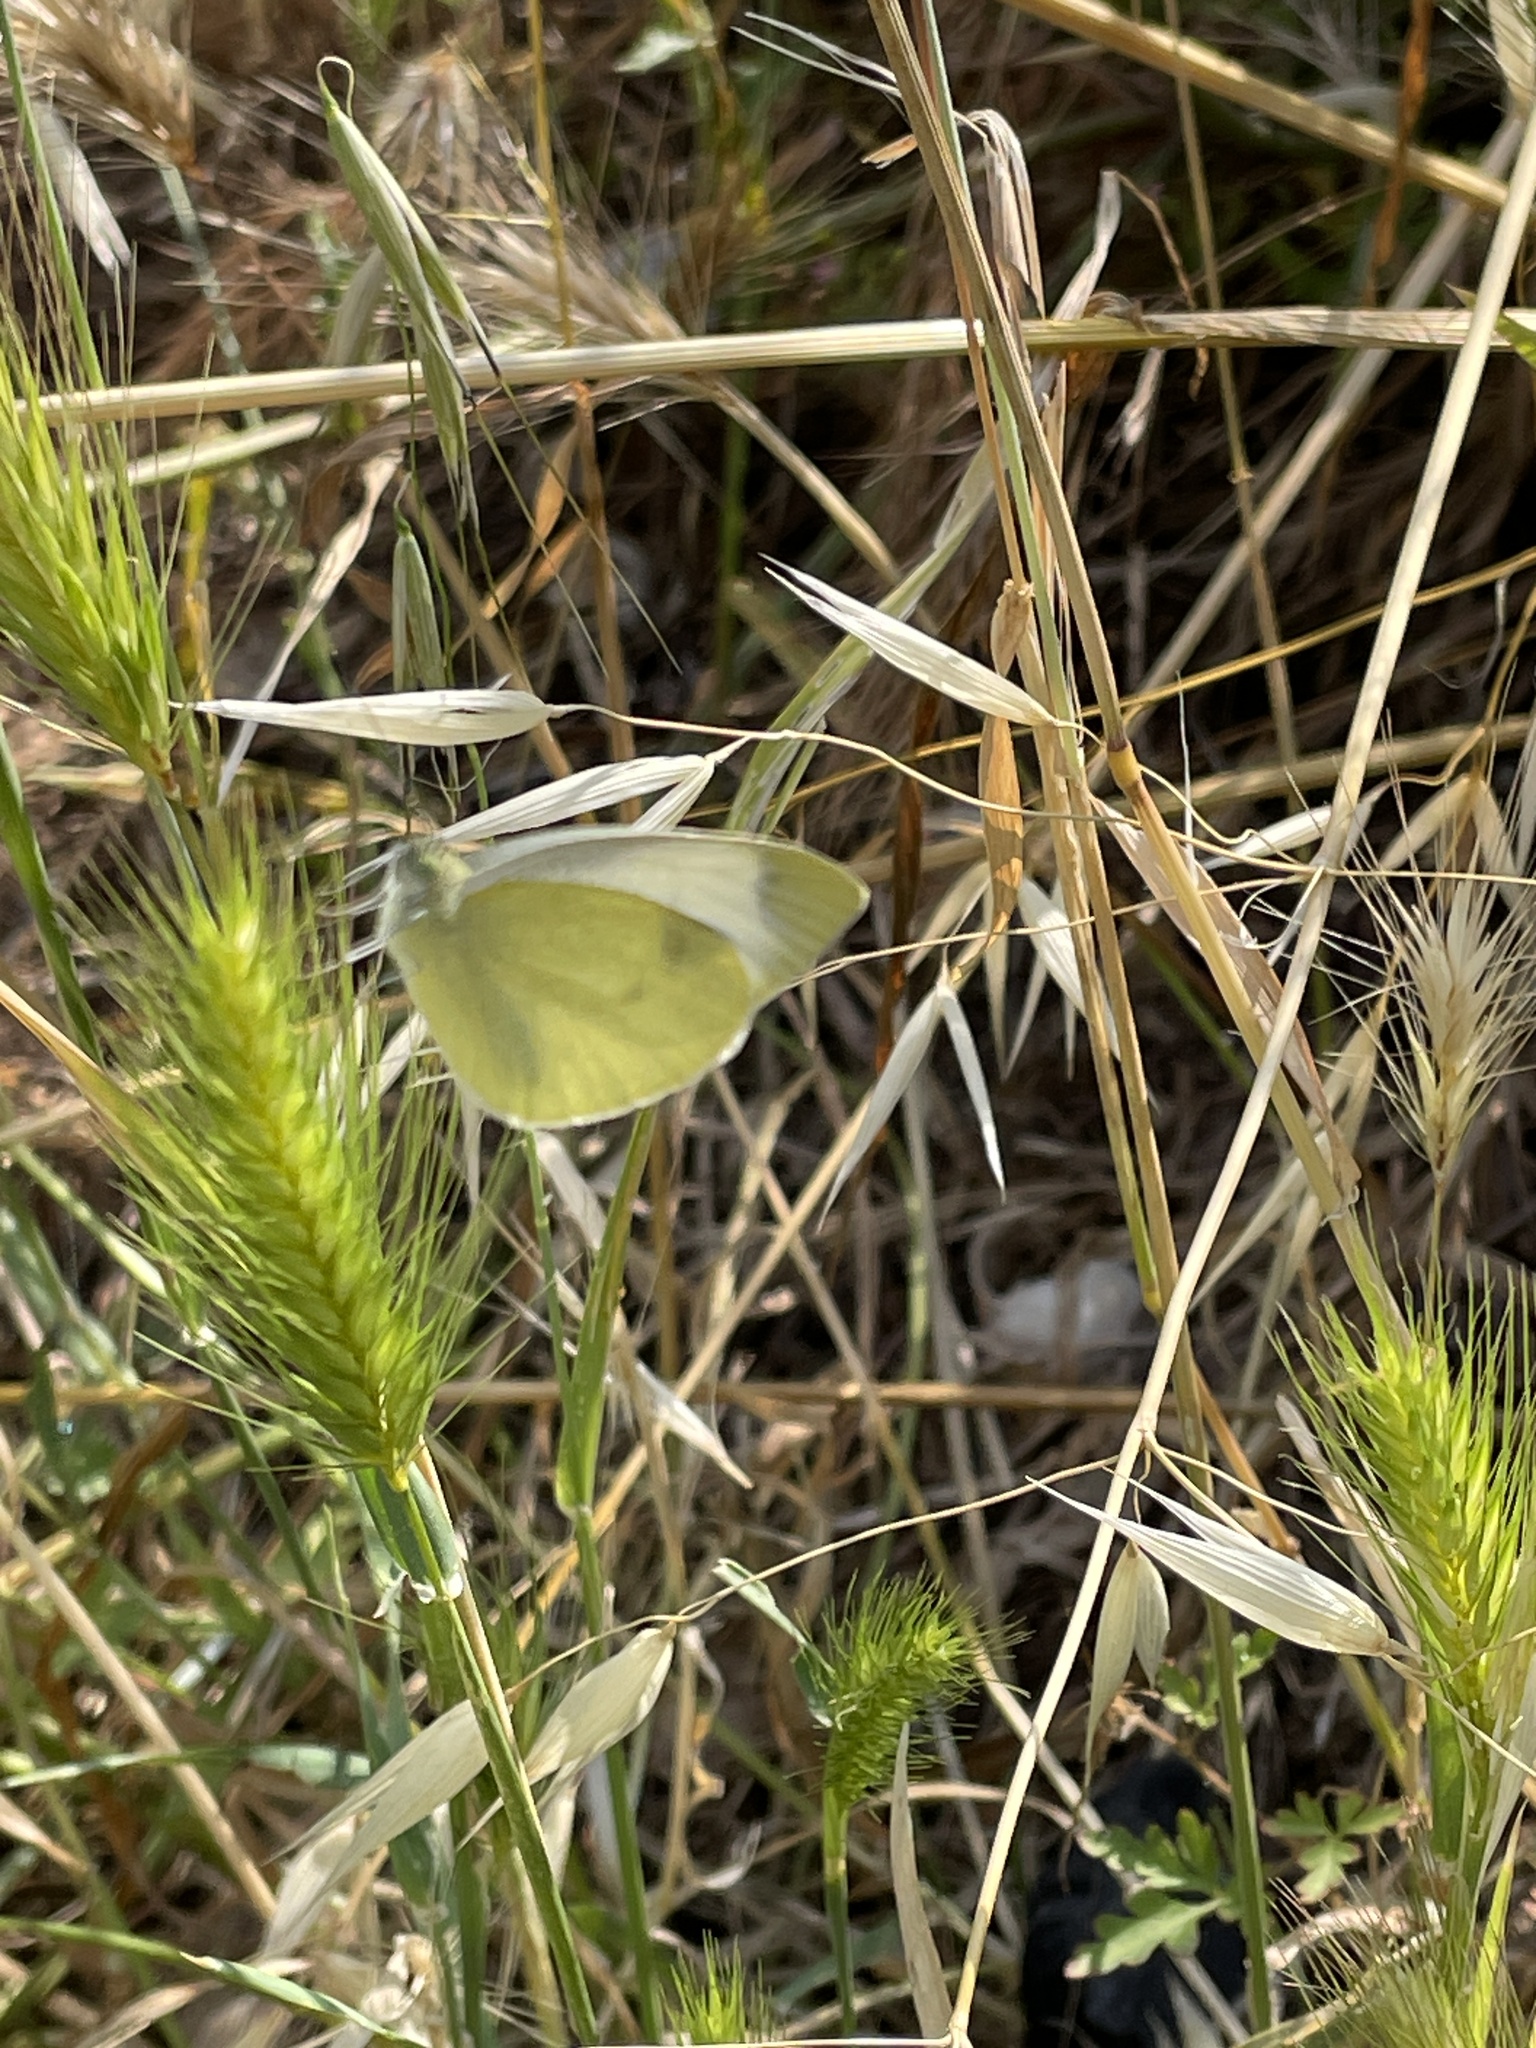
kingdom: Animalia
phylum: Arthropoda
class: Insecta
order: Lepidoptera
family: Pieridae
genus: Pieris
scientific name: Pieris mannii
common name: Southern small white
